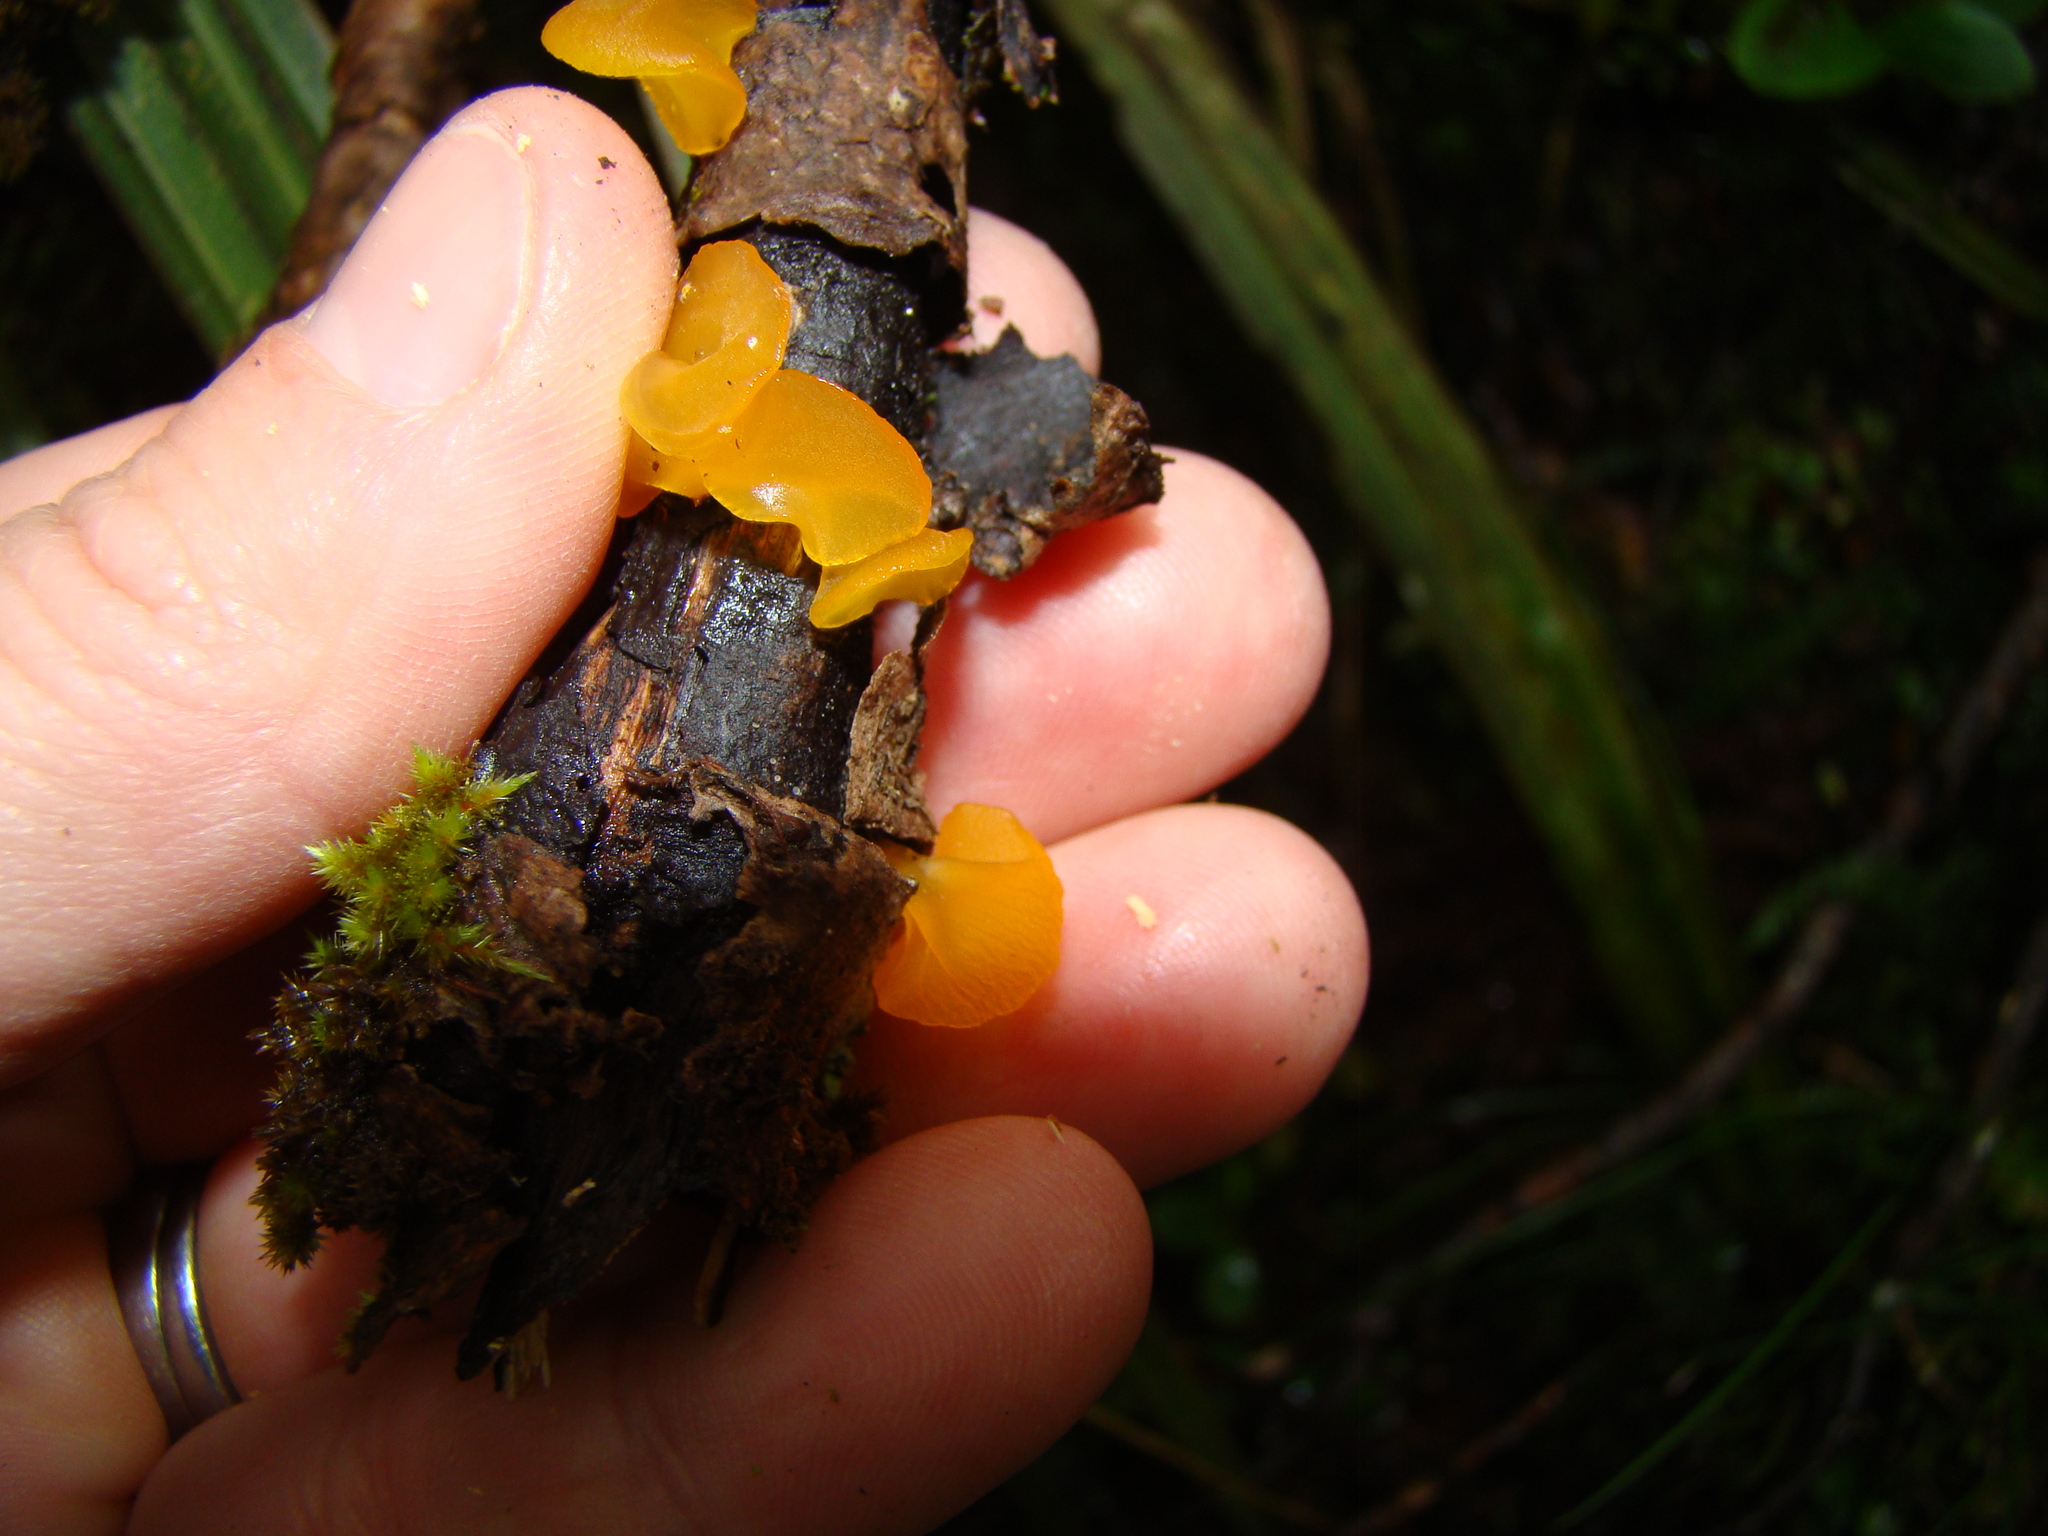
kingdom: Fungi
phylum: Basidiomycota
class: Dacrymycetes
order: Dacrymycetales
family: Dacrymycetaceae
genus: Heterotextus
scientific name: Heterotextus miltinus
